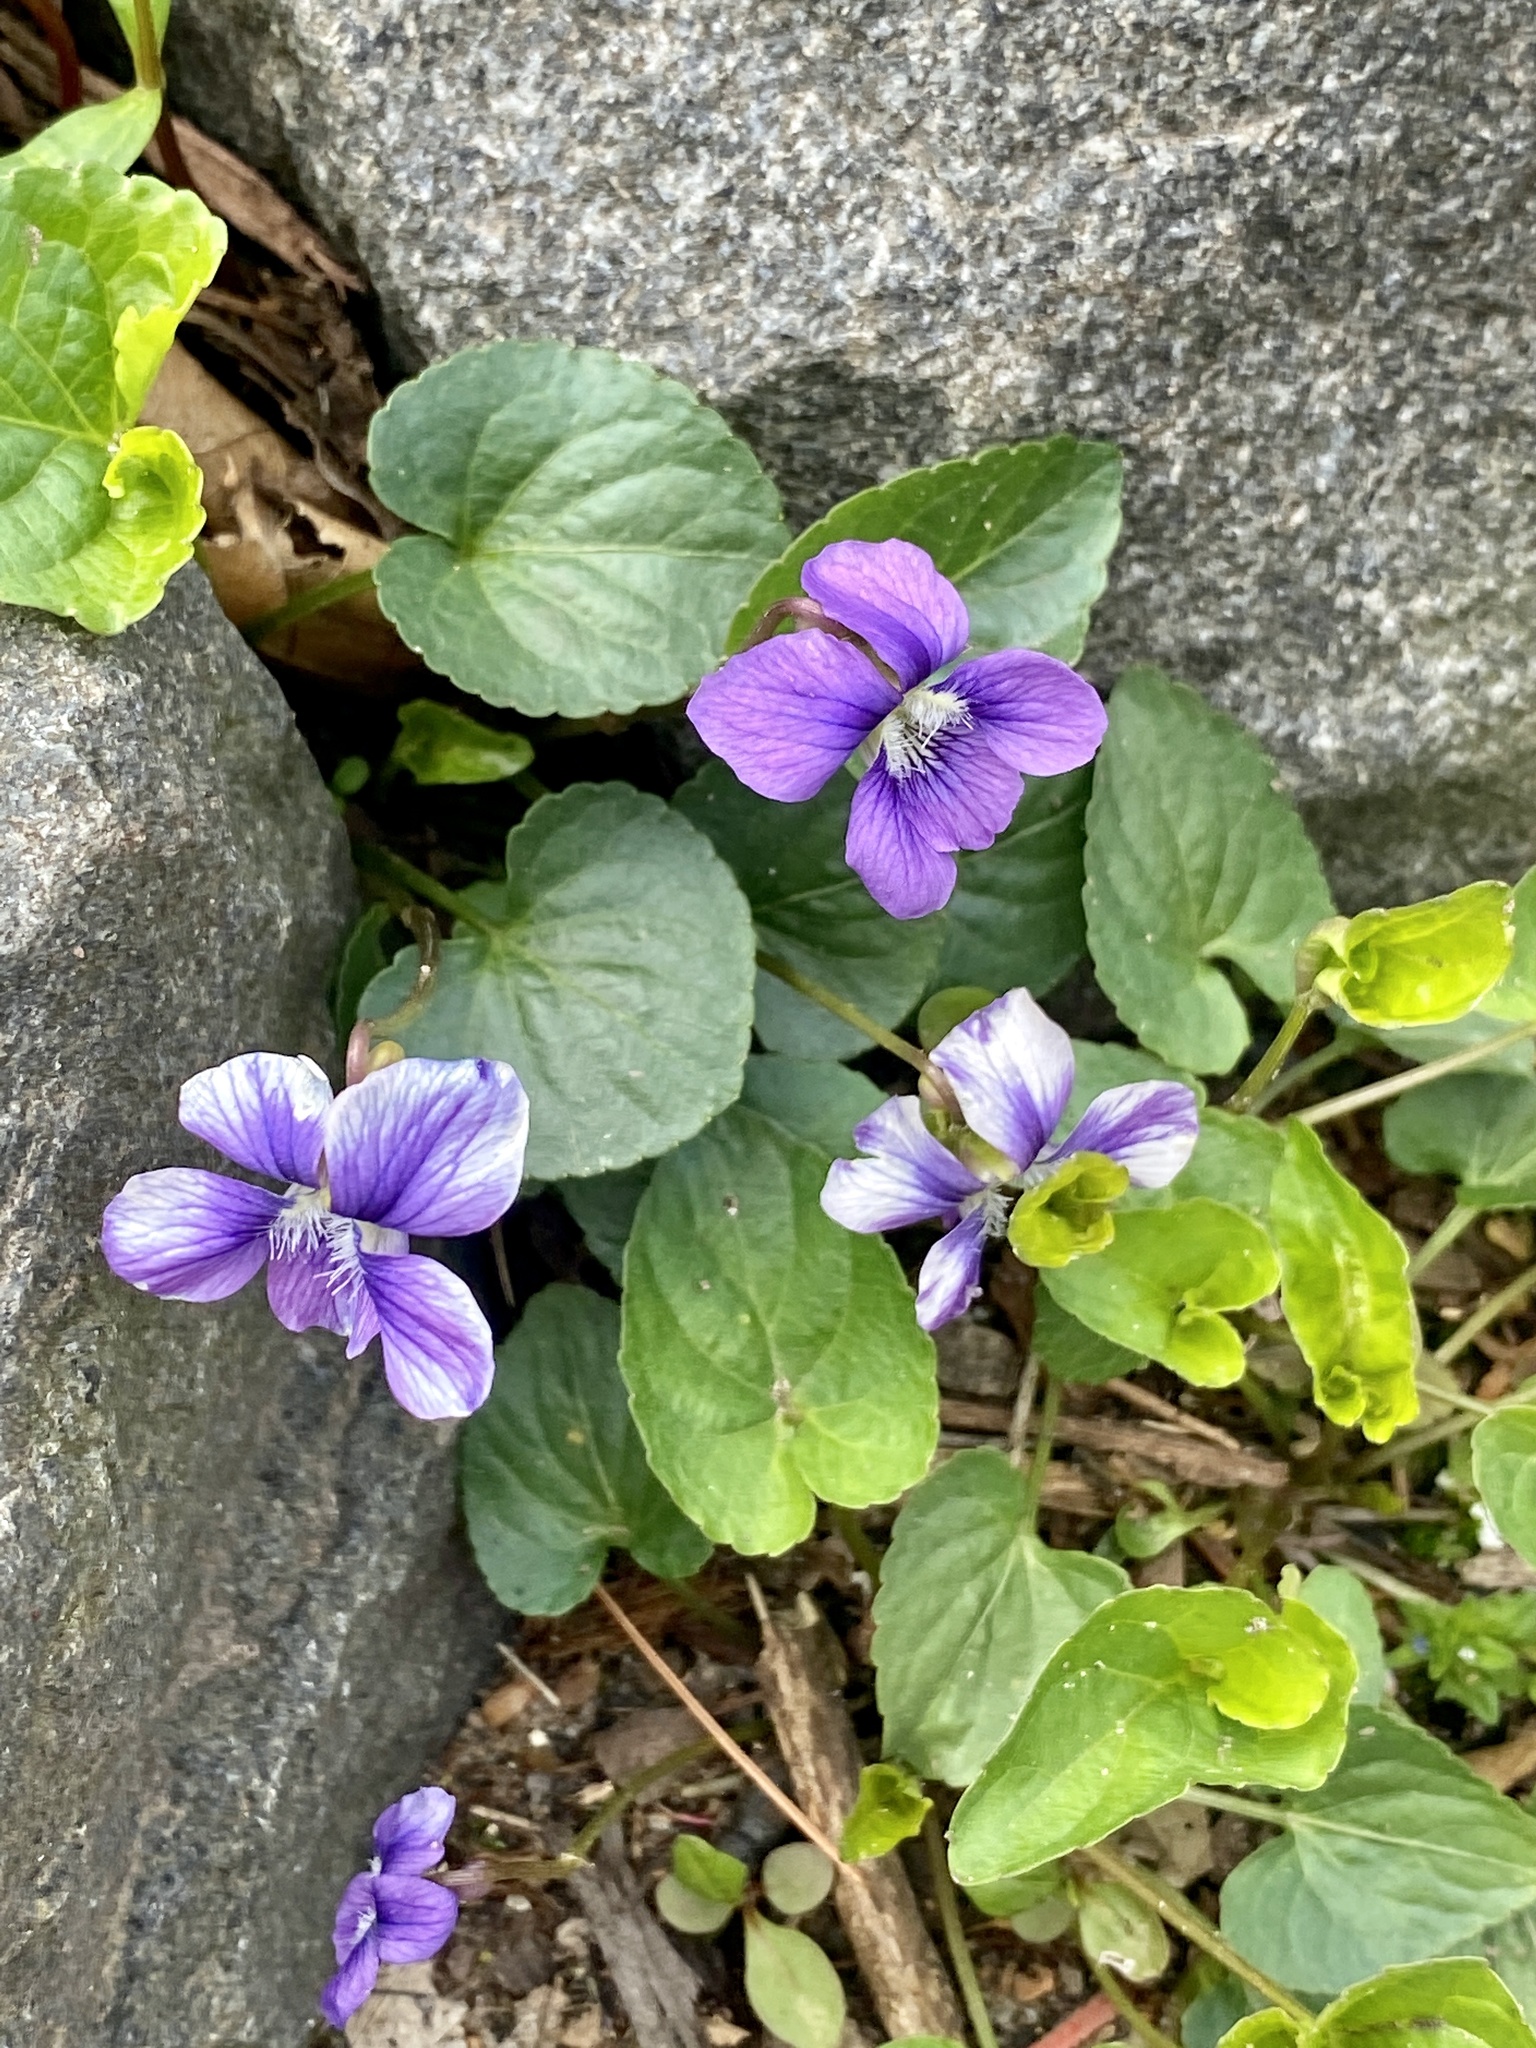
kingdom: Plantae
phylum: Tracheophyta
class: Magnoliopsida
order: Malpighiales
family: Violaceae
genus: Viola
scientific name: Viola sororia
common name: Dooryard violet
